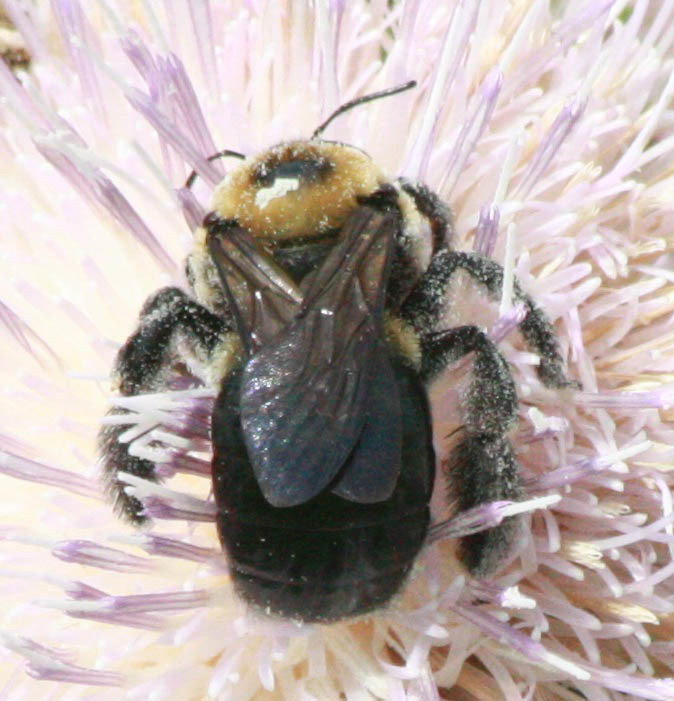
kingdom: Animalia
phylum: Arthropoda
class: Insecta
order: Hymenoptera
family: Apidae
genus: Xylocopa
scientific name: Xylocopa virginica
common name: Carpenter bee
